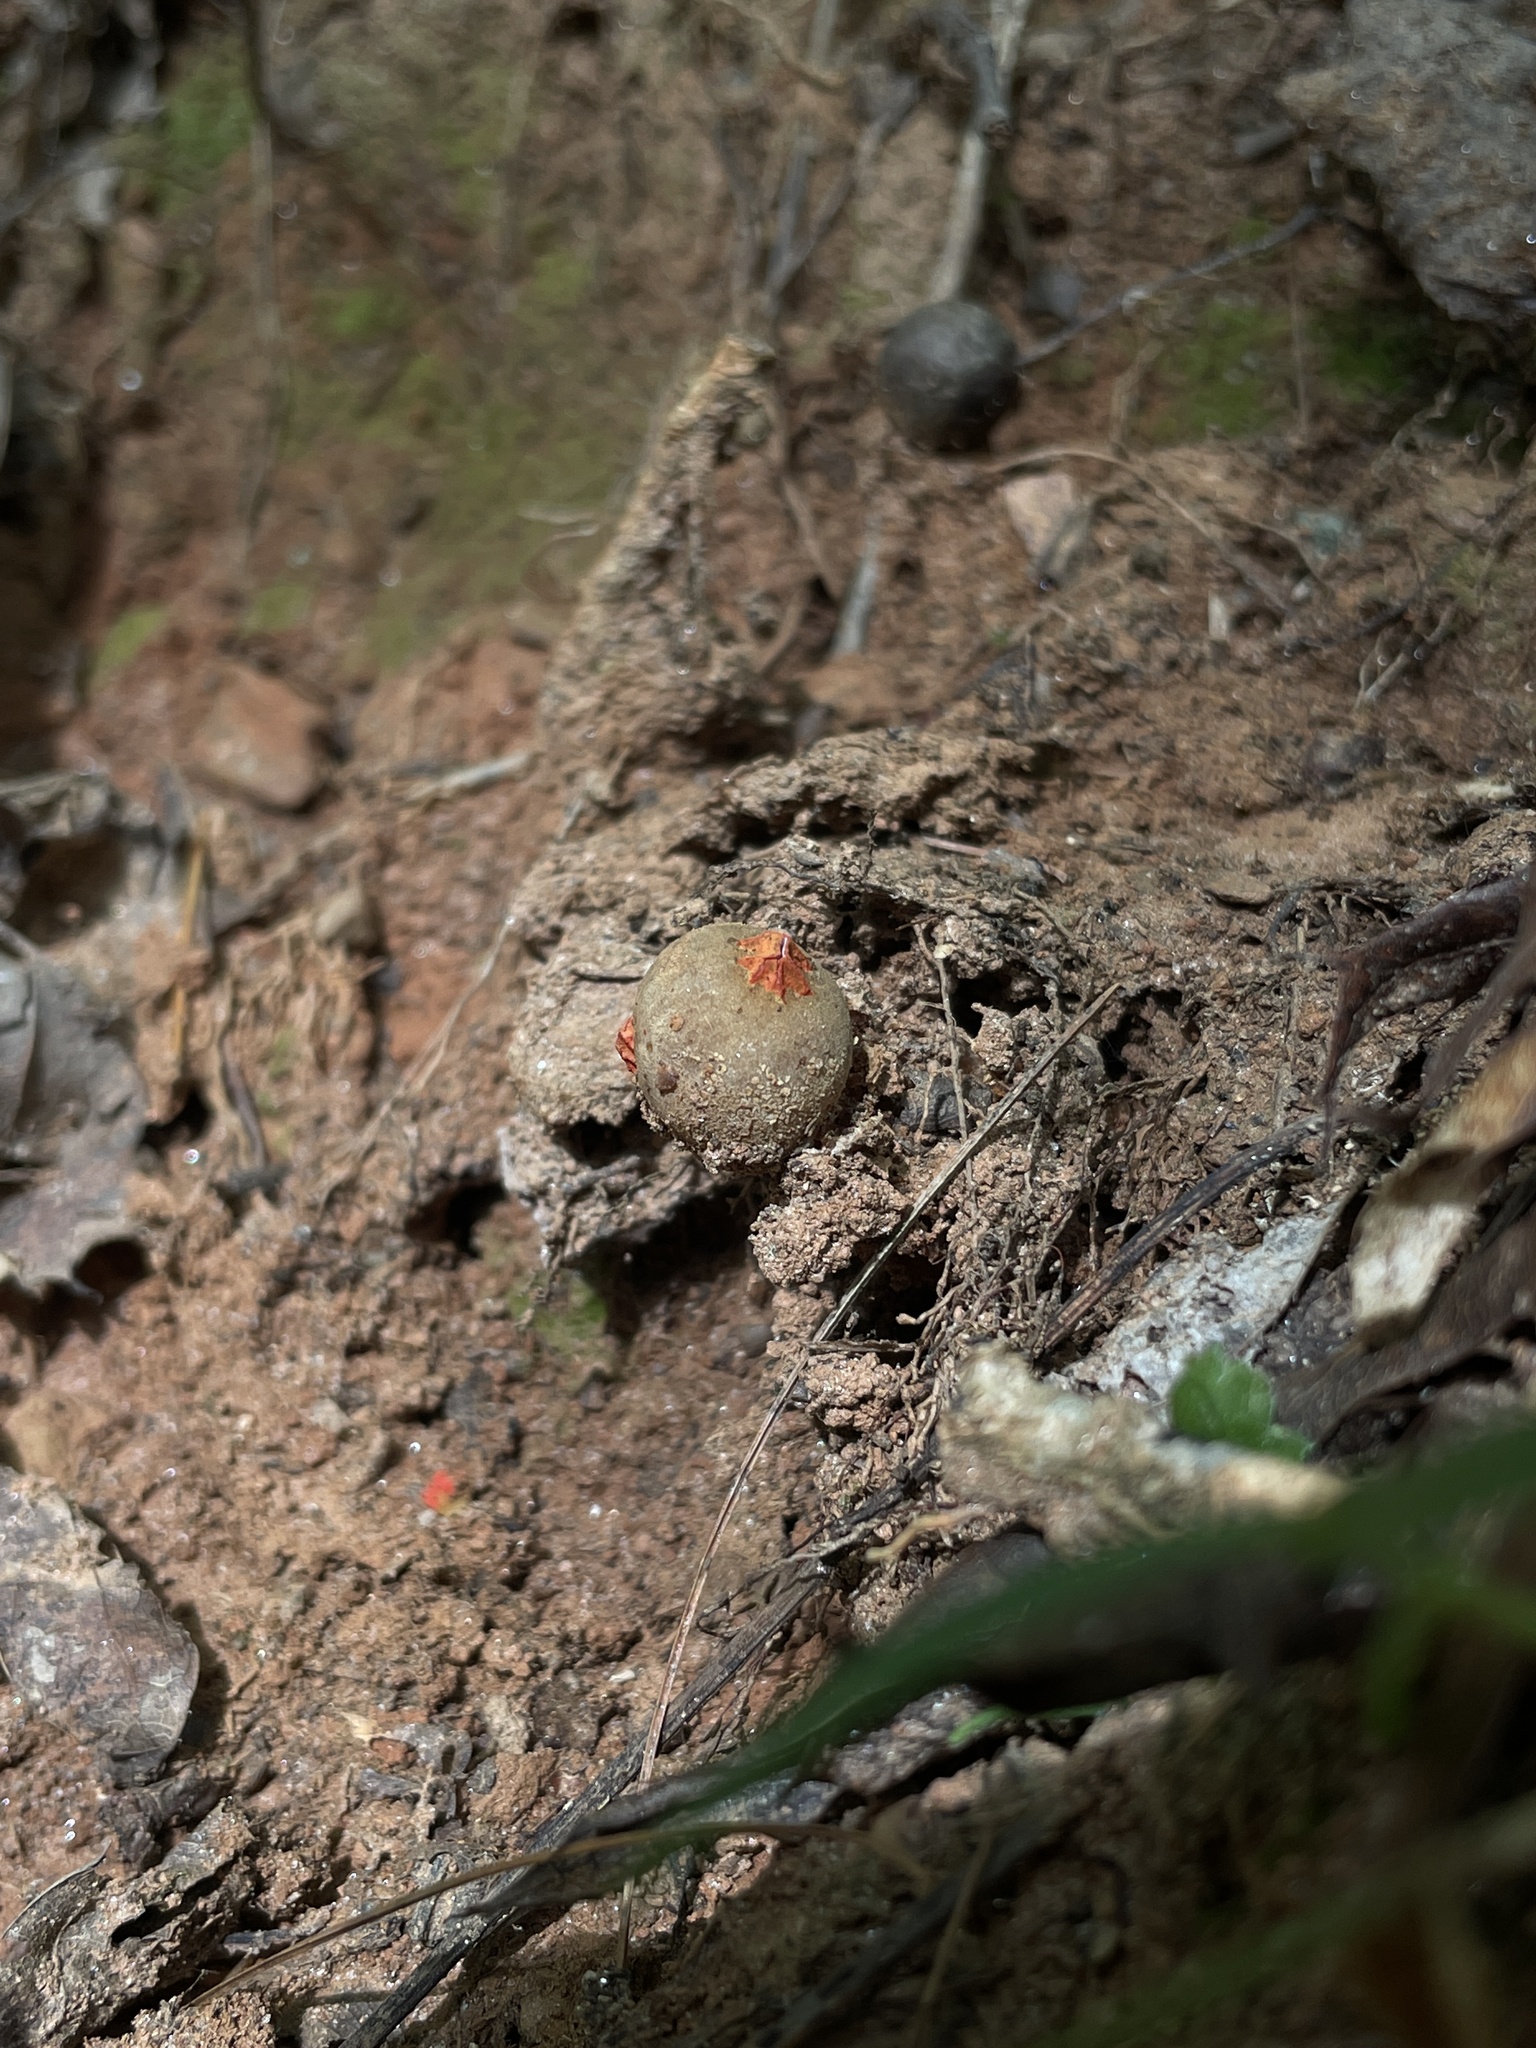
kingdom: Fungi
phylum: Basidiomycota
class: Agaricomycetes
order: Boletales
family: Calostomataceae
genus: Calostoma
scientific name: Calostoma ravenelii
